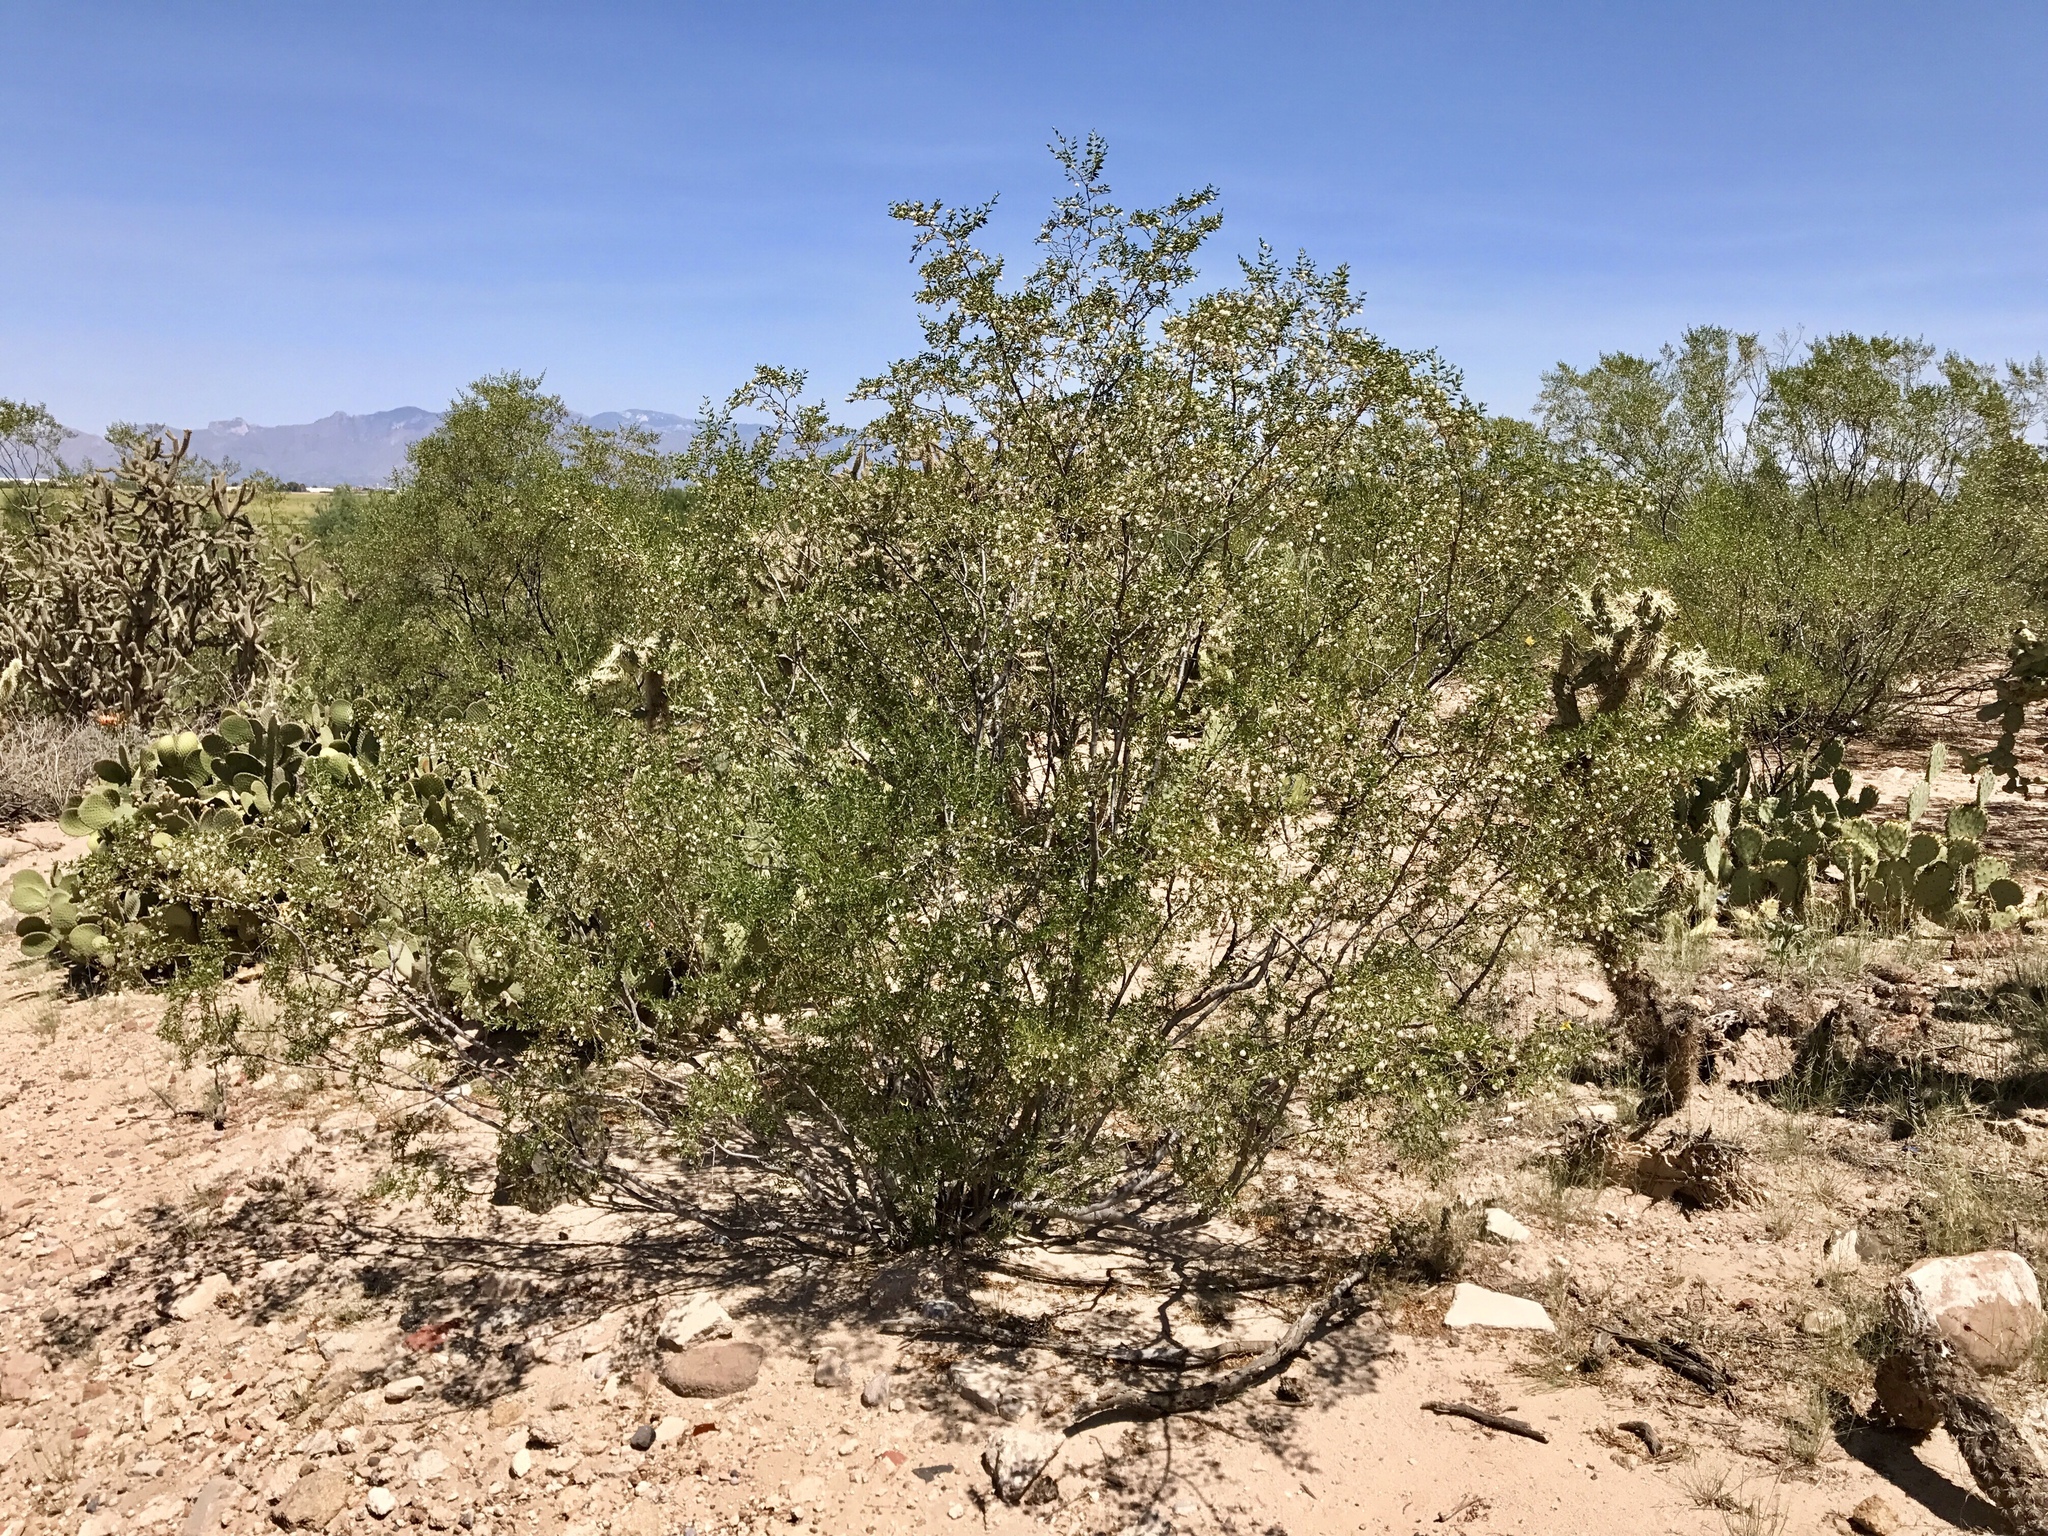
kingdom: Plantae
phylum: Tracheophyta
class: Magnoliopsida
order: Zygophyllales
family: Zygophyllaceae
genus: Larrea
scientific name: Larrea tridentata
